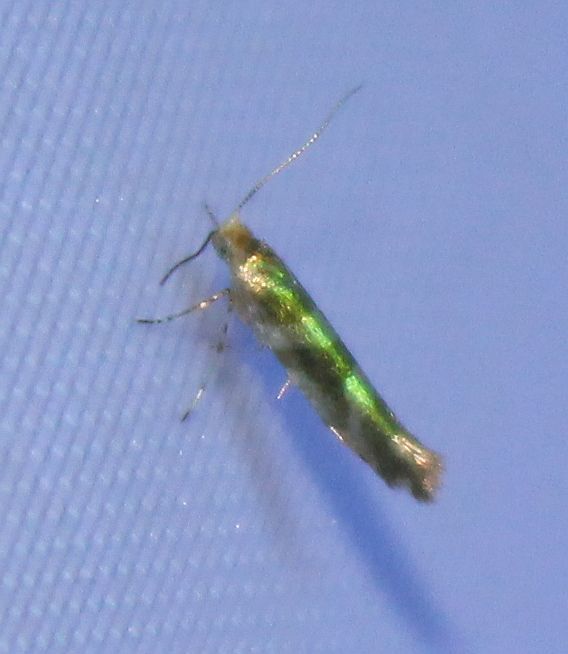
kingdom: Animalia
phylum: Arthropoda
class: Insecta
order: Lepidoptera
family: Argyresthiidae
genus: Argyresthia
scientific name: Argyresthia goedartella
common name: Golden argent
